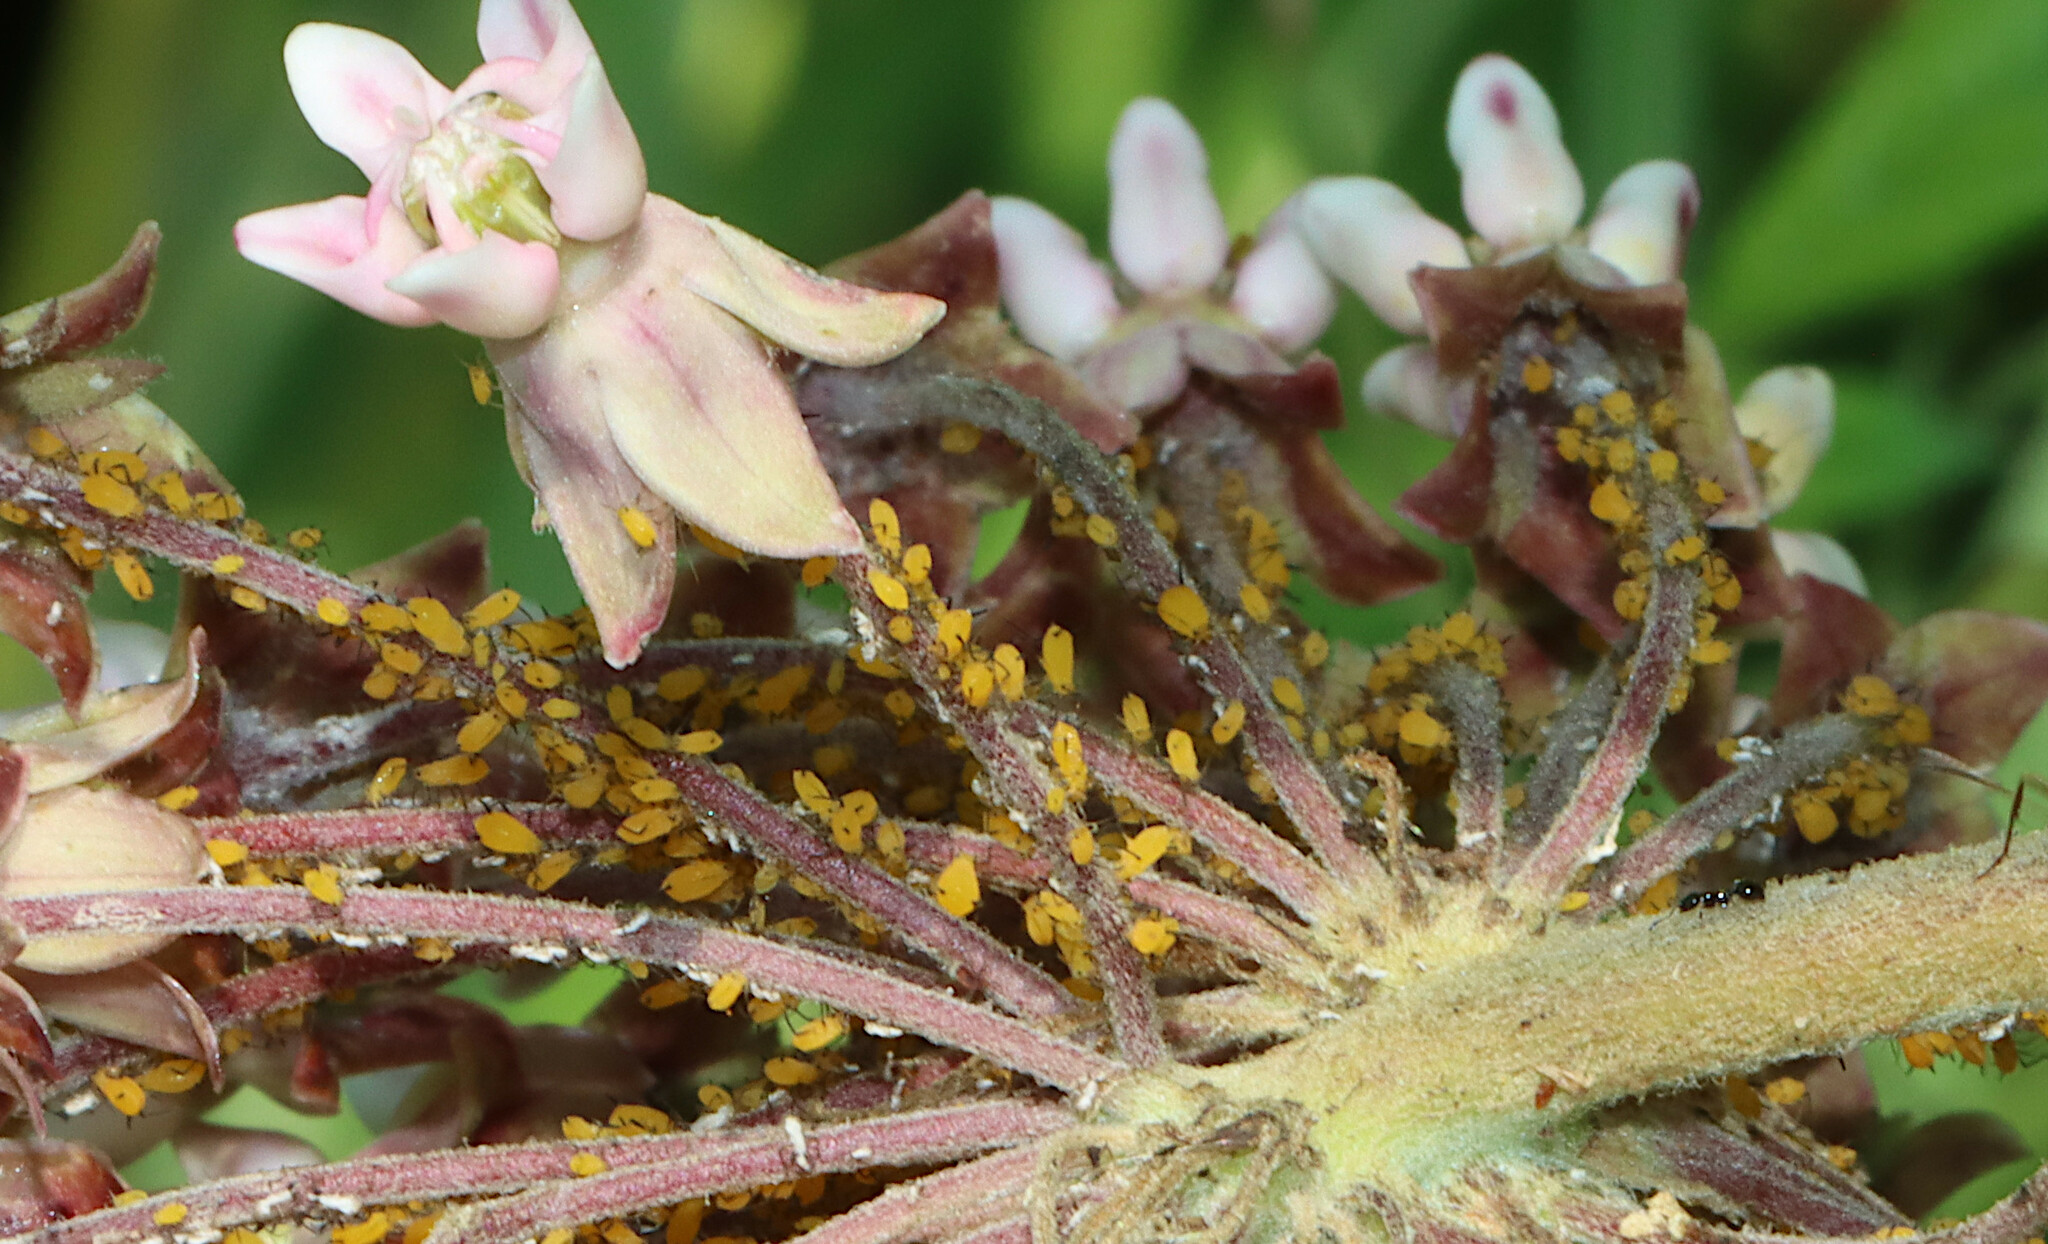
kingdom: Animalia
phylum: Arthropoda
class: Insecta
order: Hemiptera
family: Aphididae
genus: Aphis
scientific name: Aphis nerii
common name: Oleander aphid
